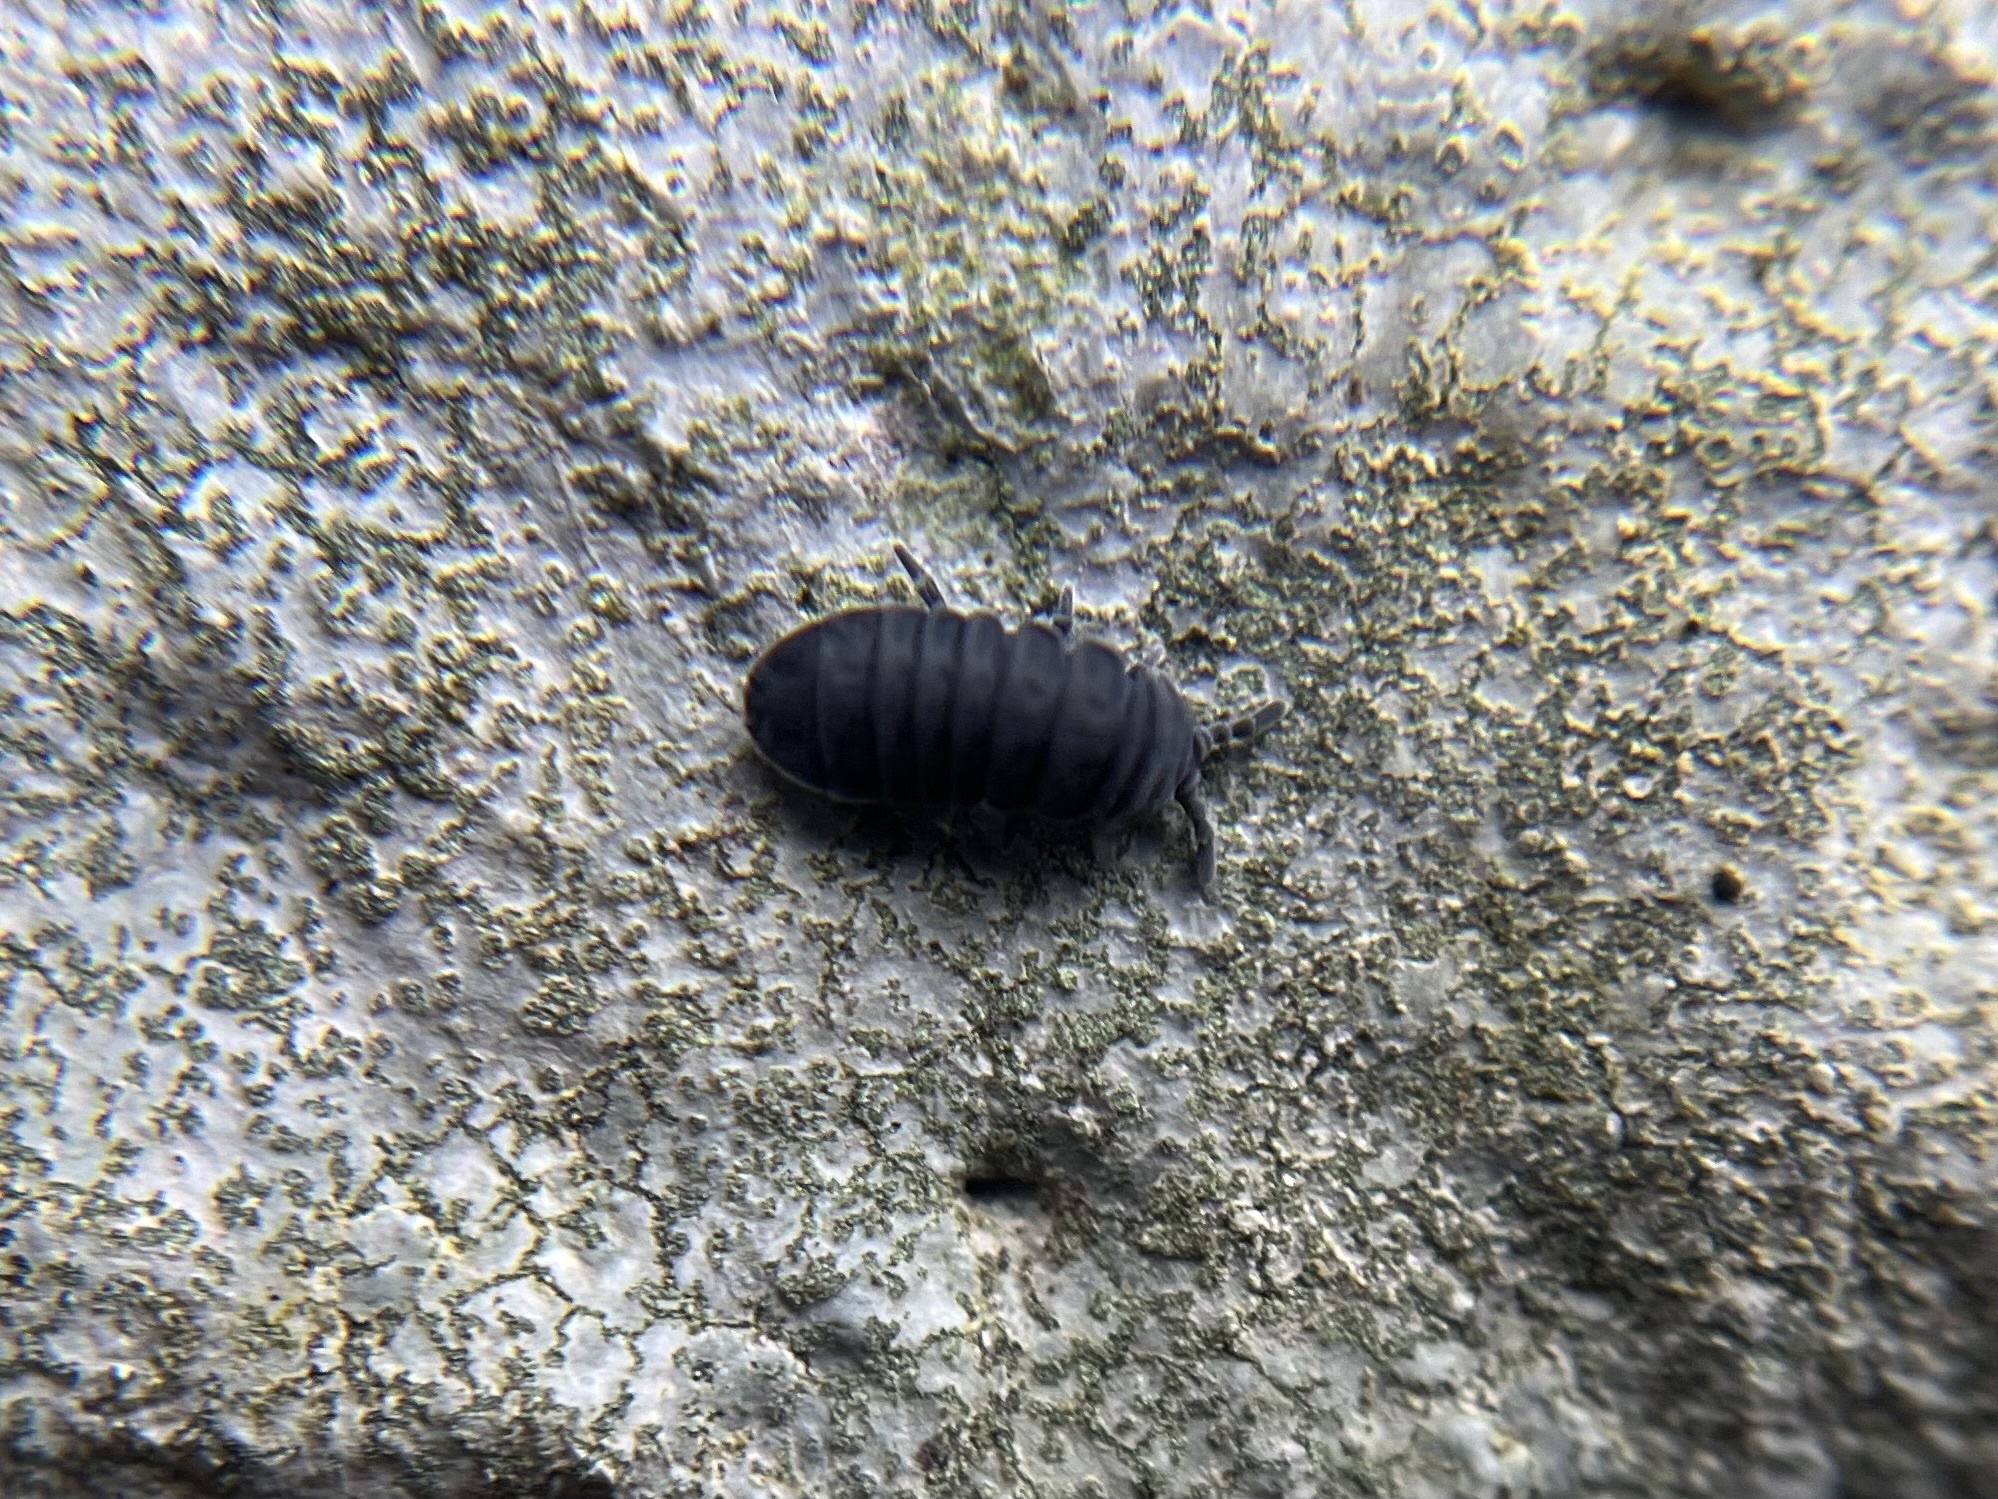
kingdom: Animalia
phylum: Arthropoda
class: Collembola
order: Poduromorpha
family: Onychiuridae
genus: Tetrodontophora
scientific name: Tetrodontophora bielanensis
